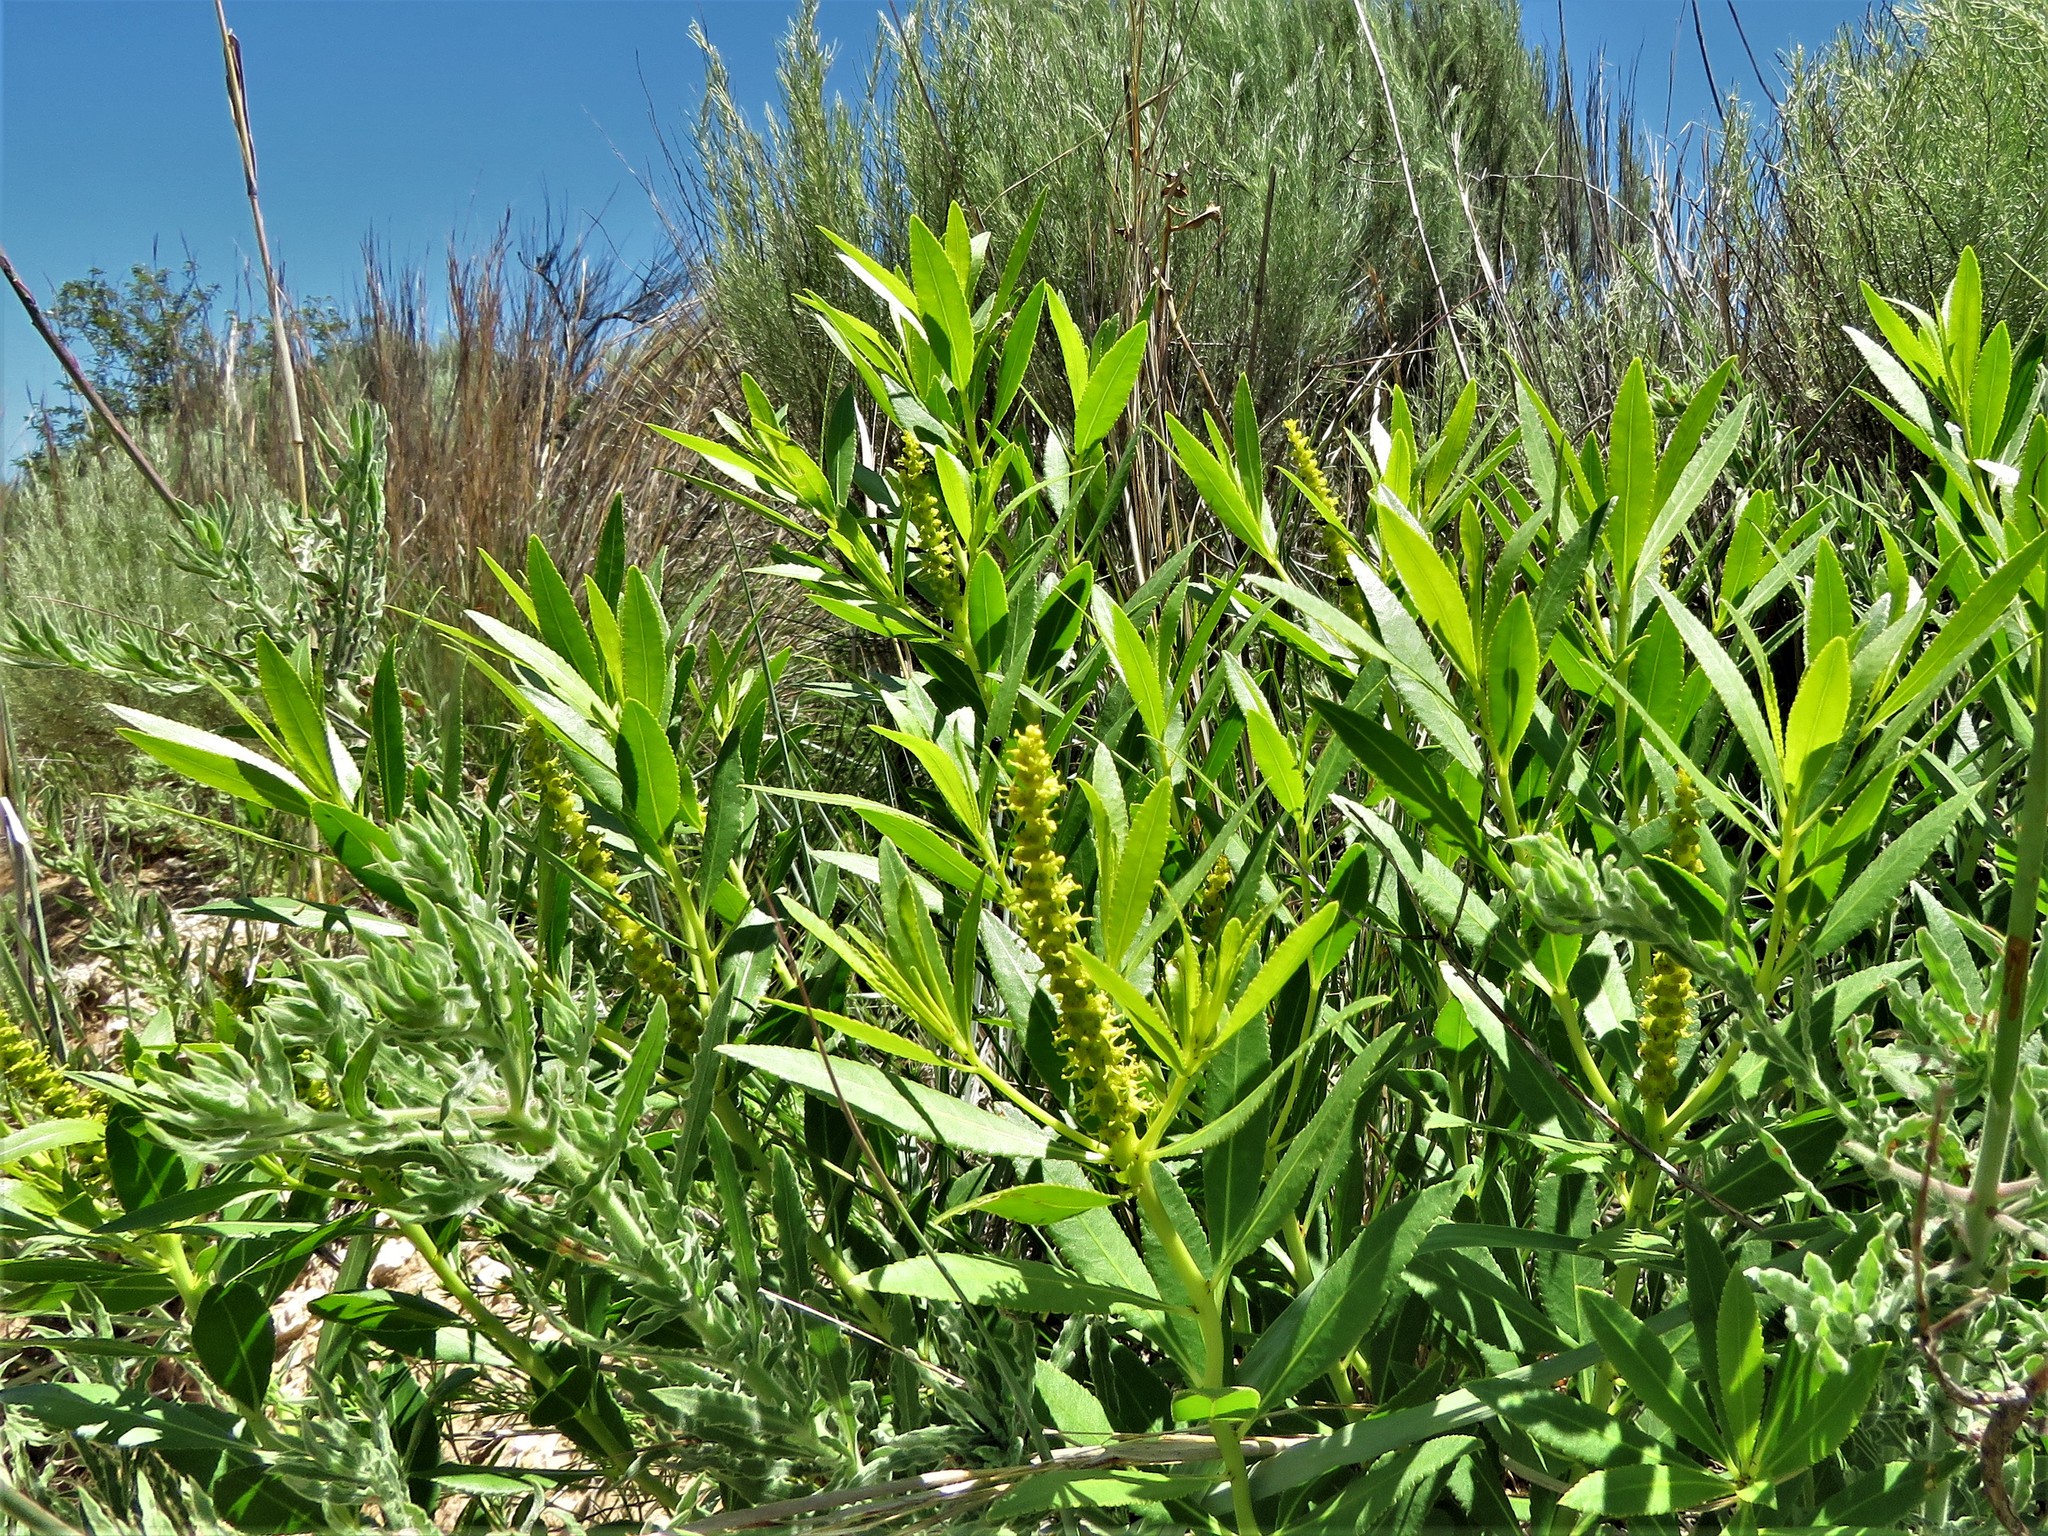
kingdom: Plantae
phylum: Tracheophyta
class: Magnoliopsida
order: Malpighiales
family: Euphorbiaceae
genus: Stillingia
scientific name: Stillingia sylvatica
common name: Queen's-delight
